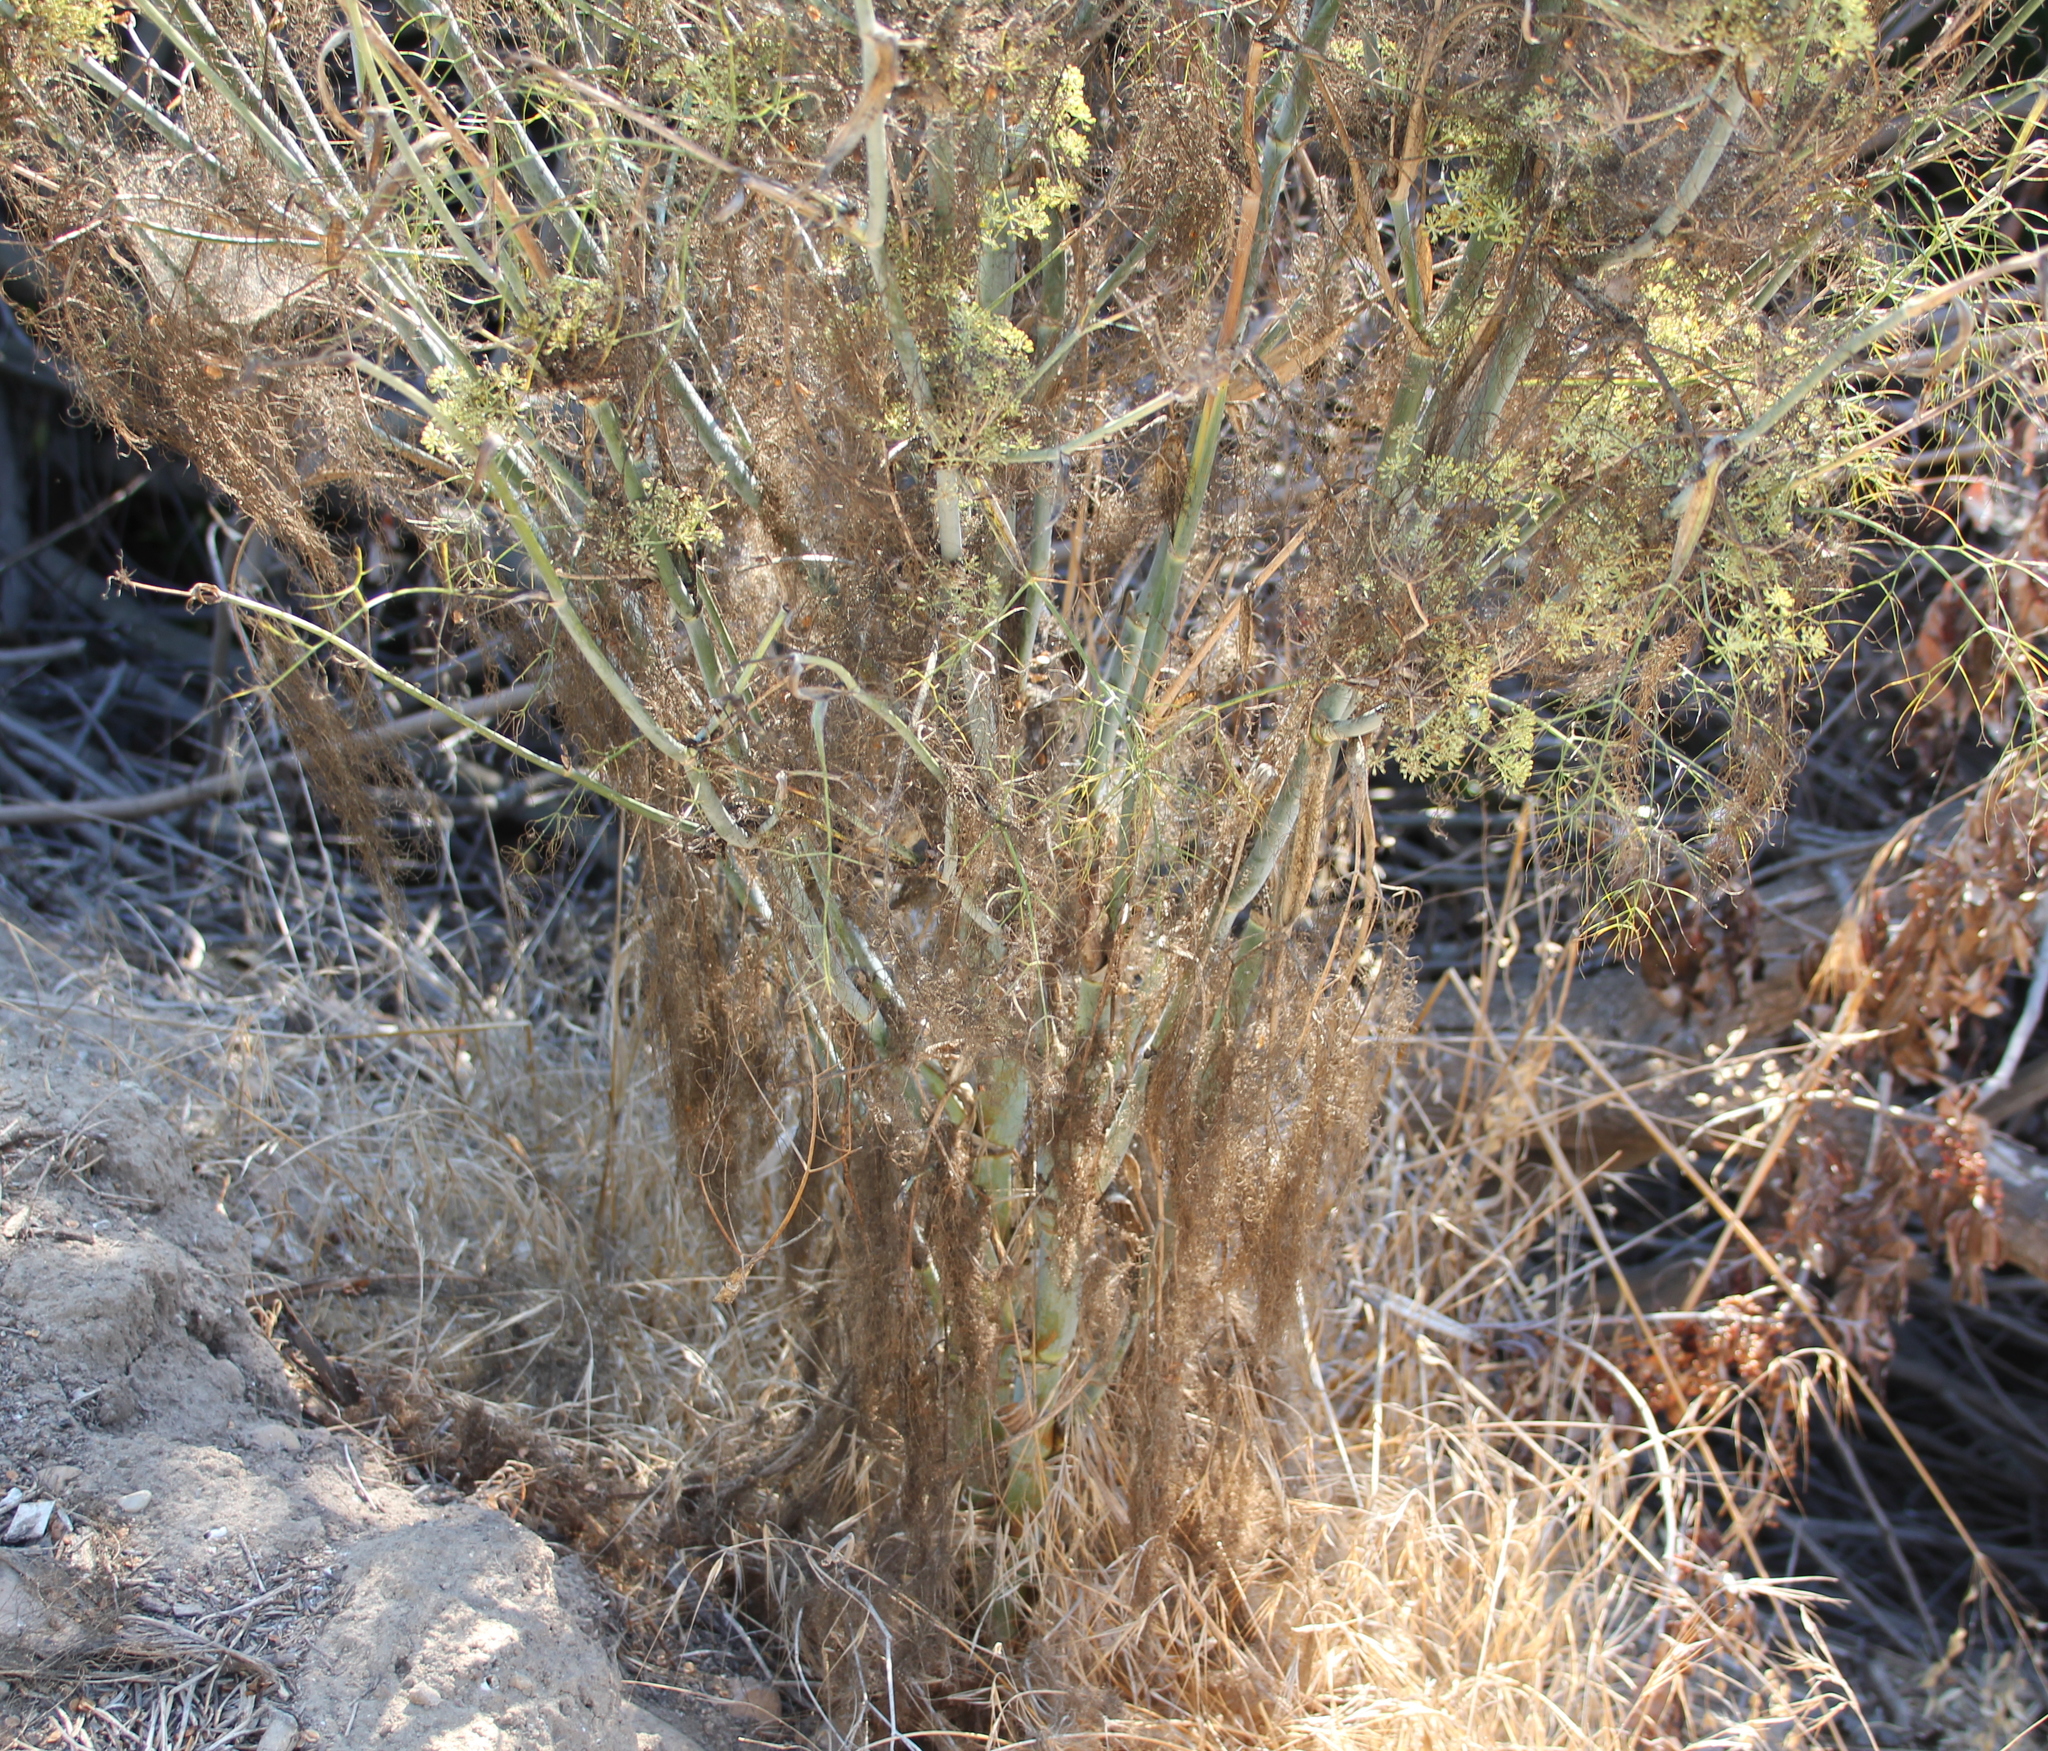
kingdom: Plantae
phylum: Tracheophyta
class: Magnoliopsida
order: Apiales
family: Apiaceae
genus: Foeniculum
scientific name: Foeniculum vulgare
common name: Fennel
